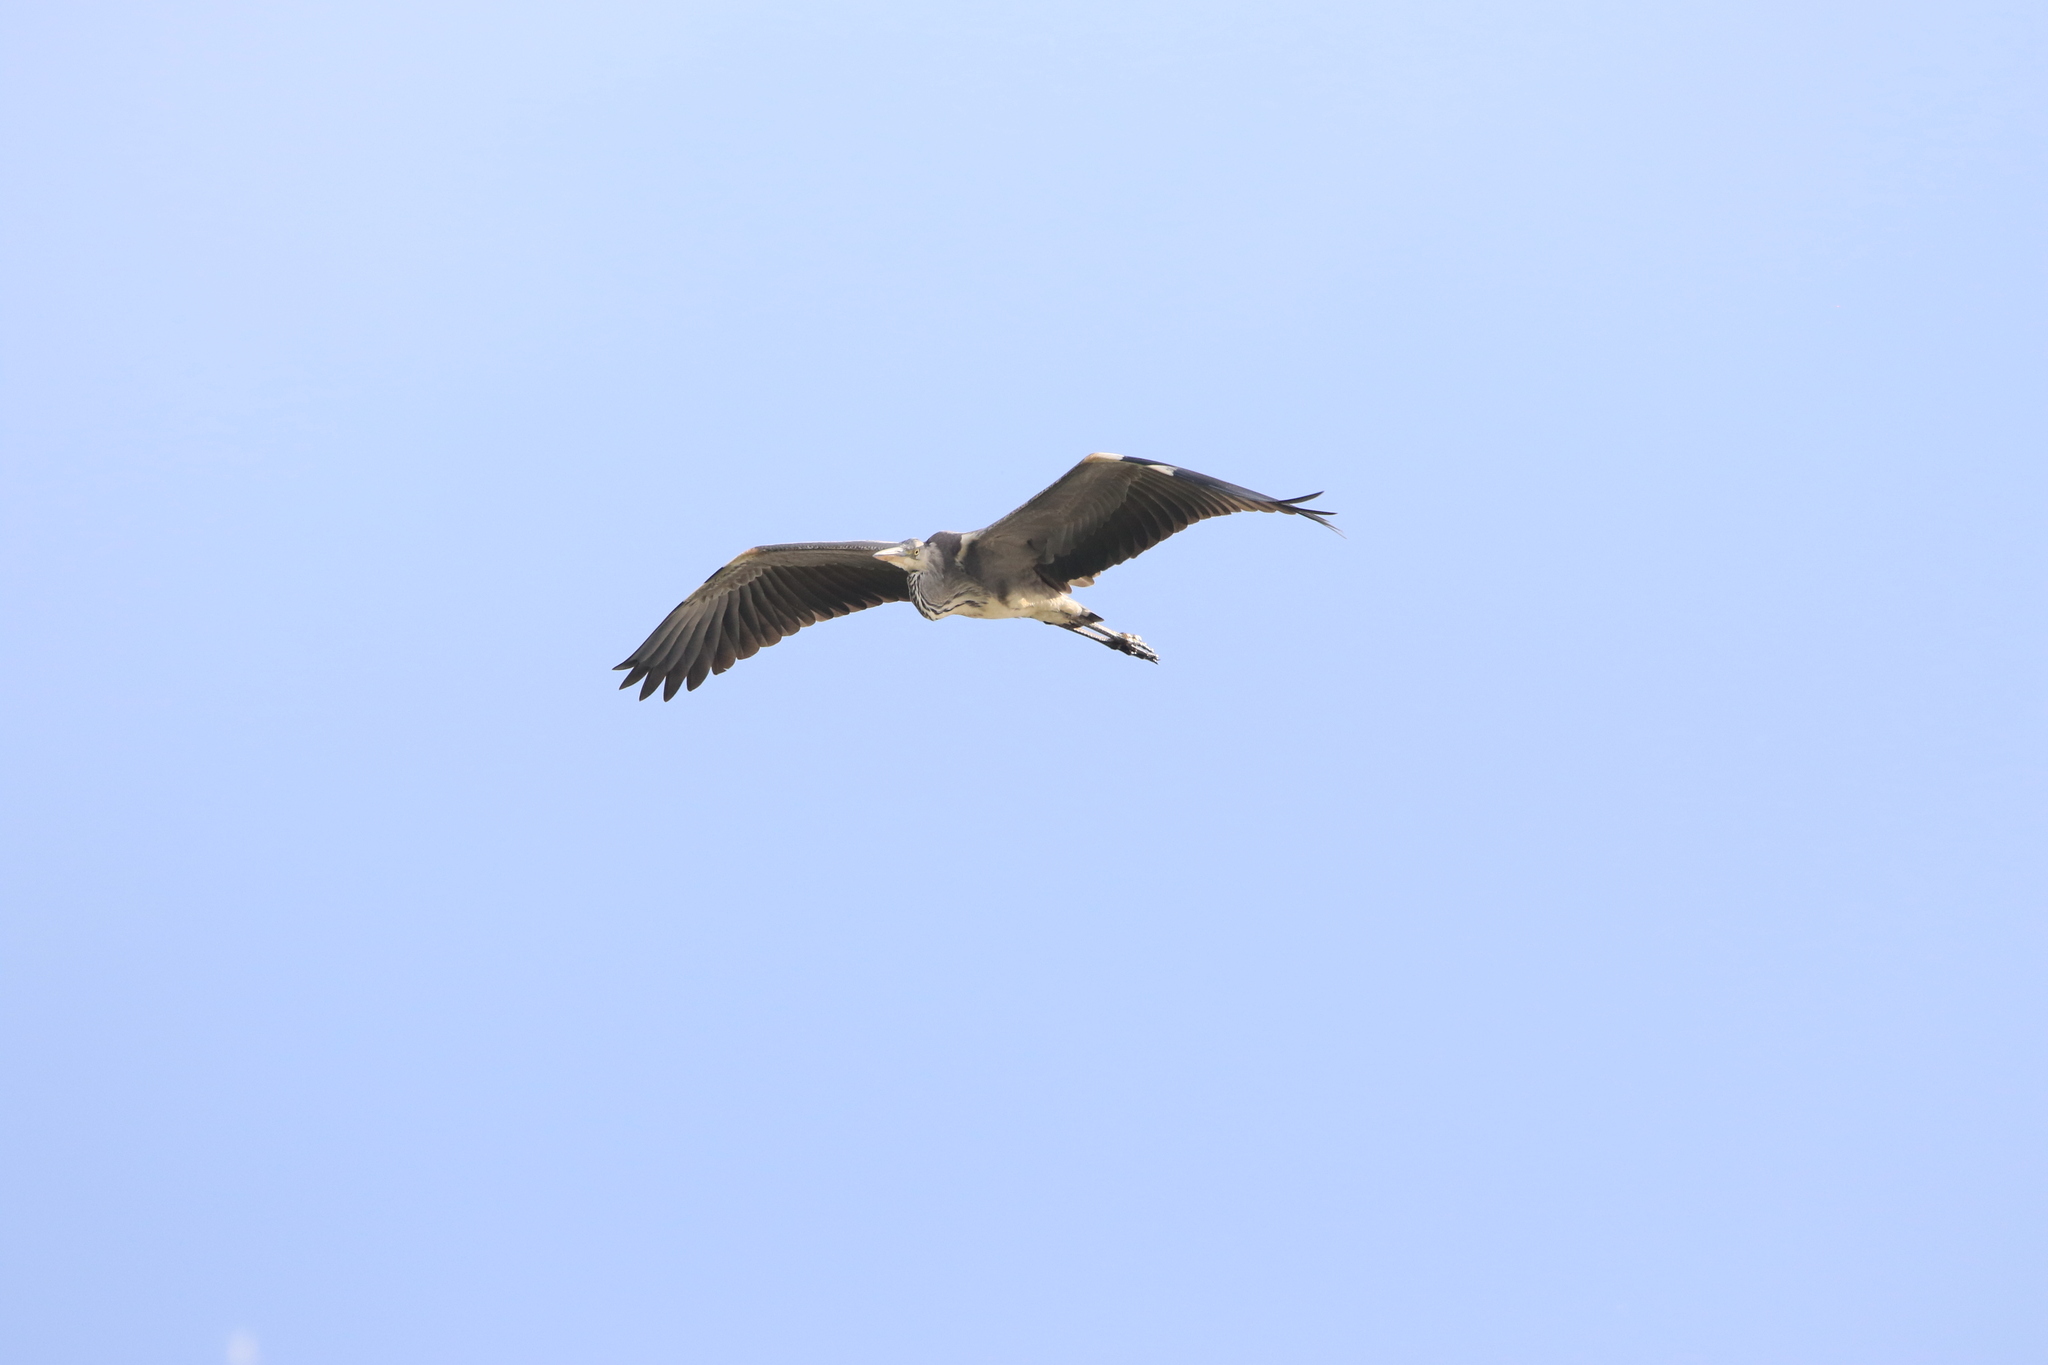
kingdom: Animalia
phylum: Chordata
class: Aves
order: Pelecaniformes
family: Ardeidae
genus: Ardea
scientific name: Ardea cinerea
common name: Grey heron
